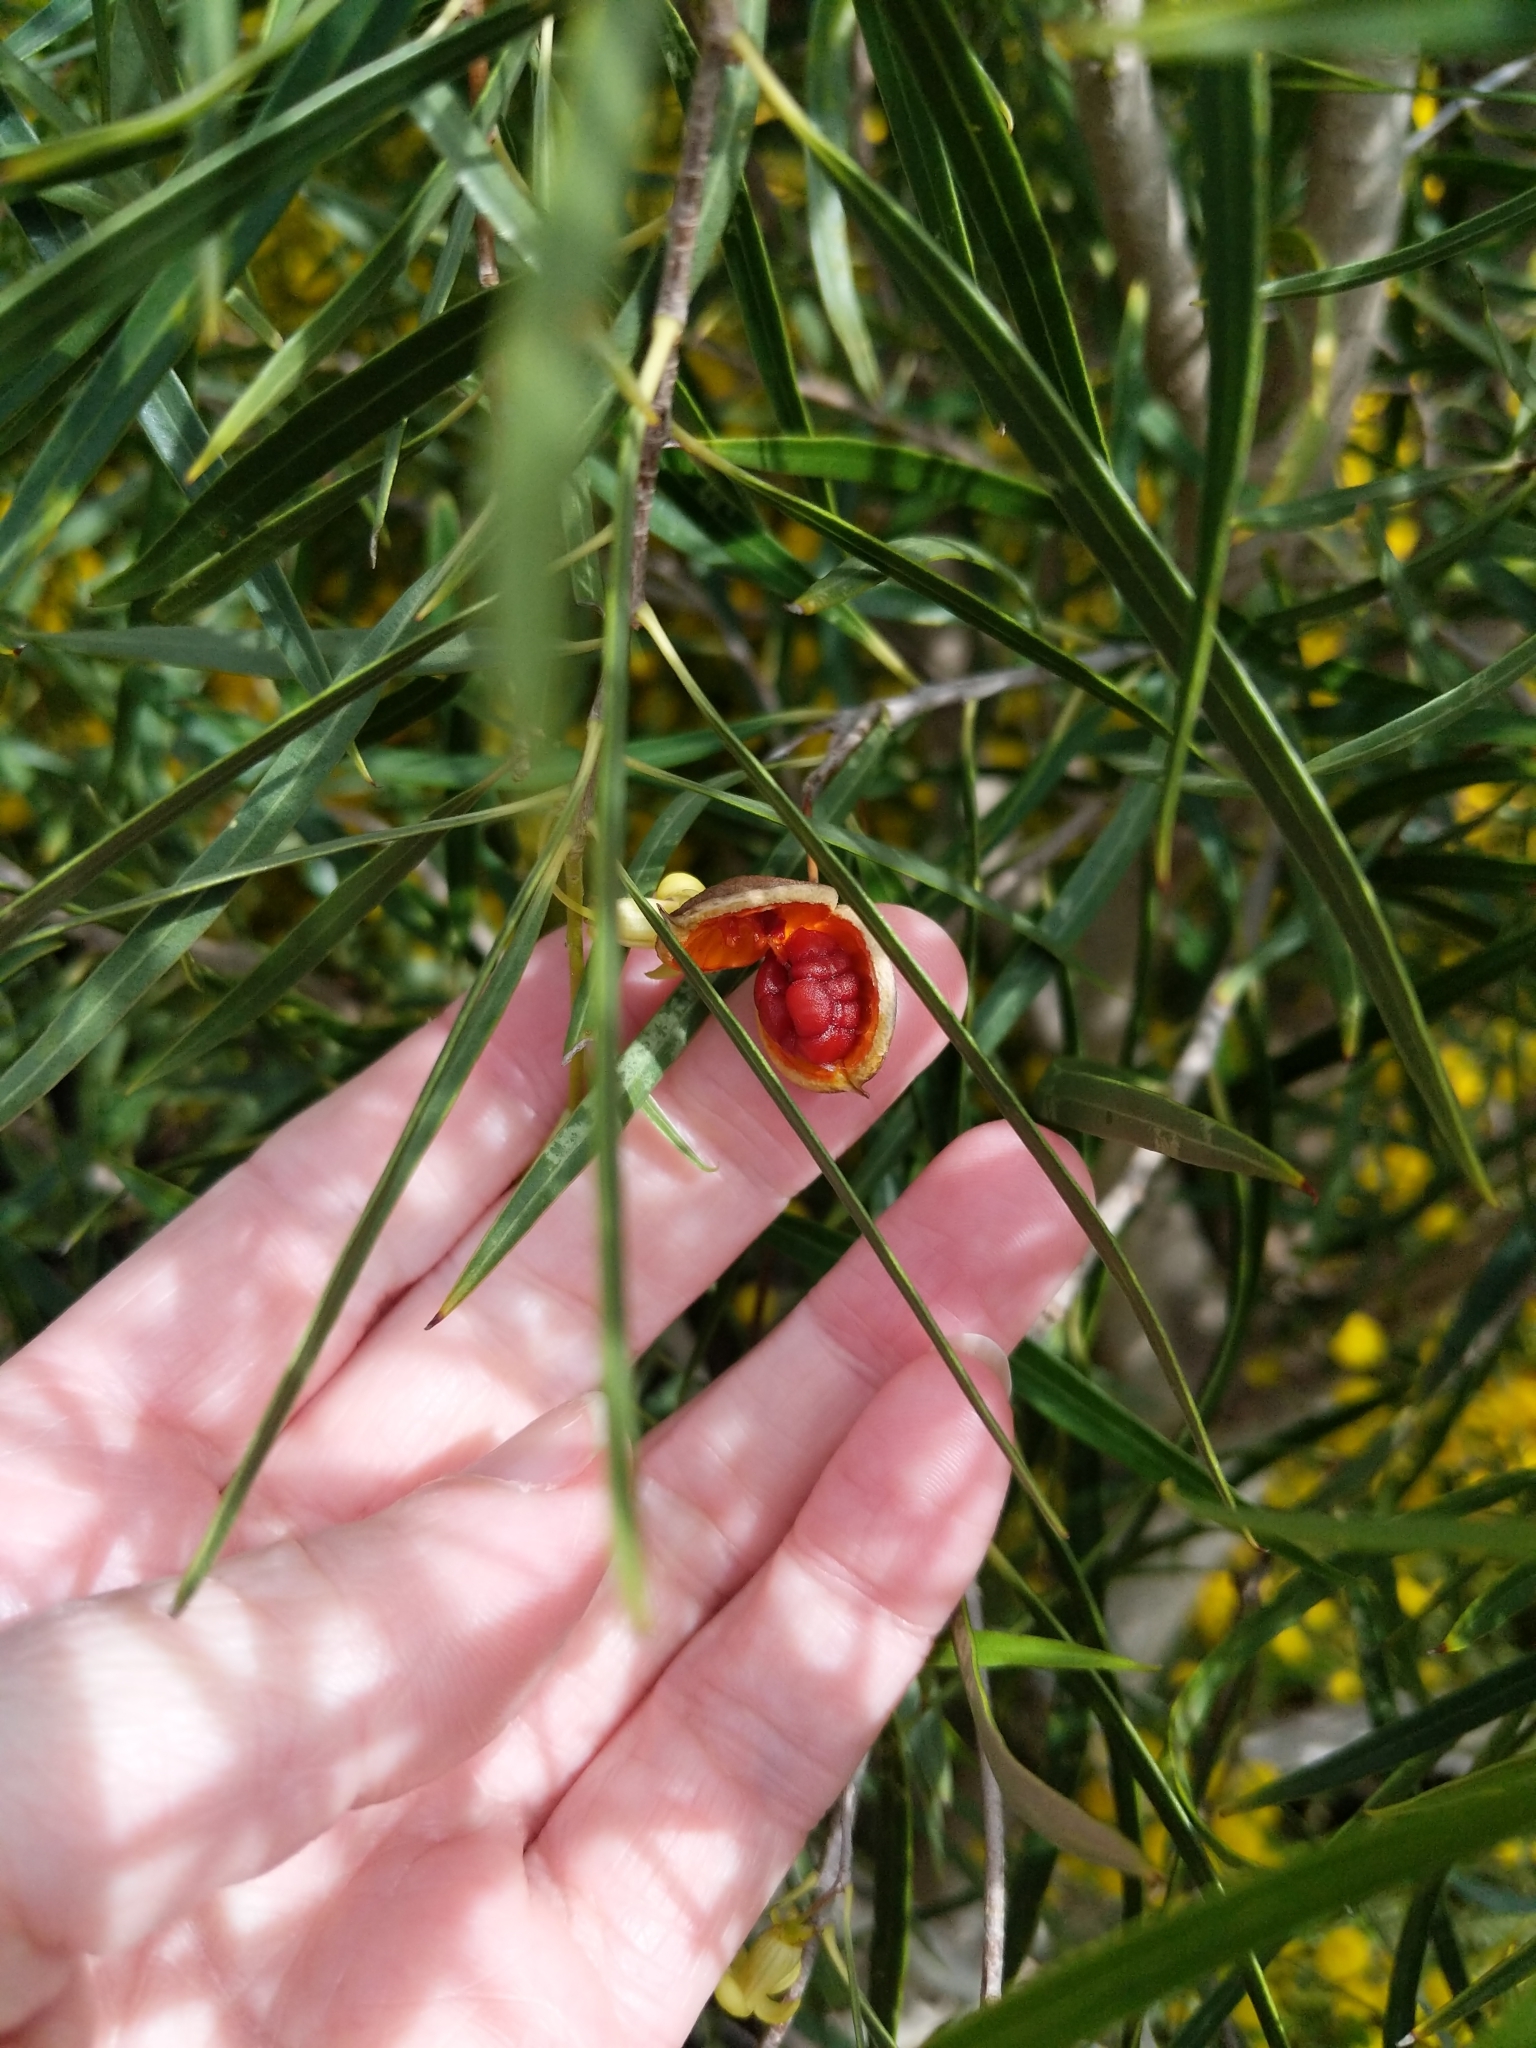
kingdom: Plantae
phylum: Tracheophyta
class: Magnoliopsida
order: Apiales
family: Pittosporaceae
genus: Pittosporum
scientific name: Pittosporum angustifolium
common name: Weeping pittosporum
